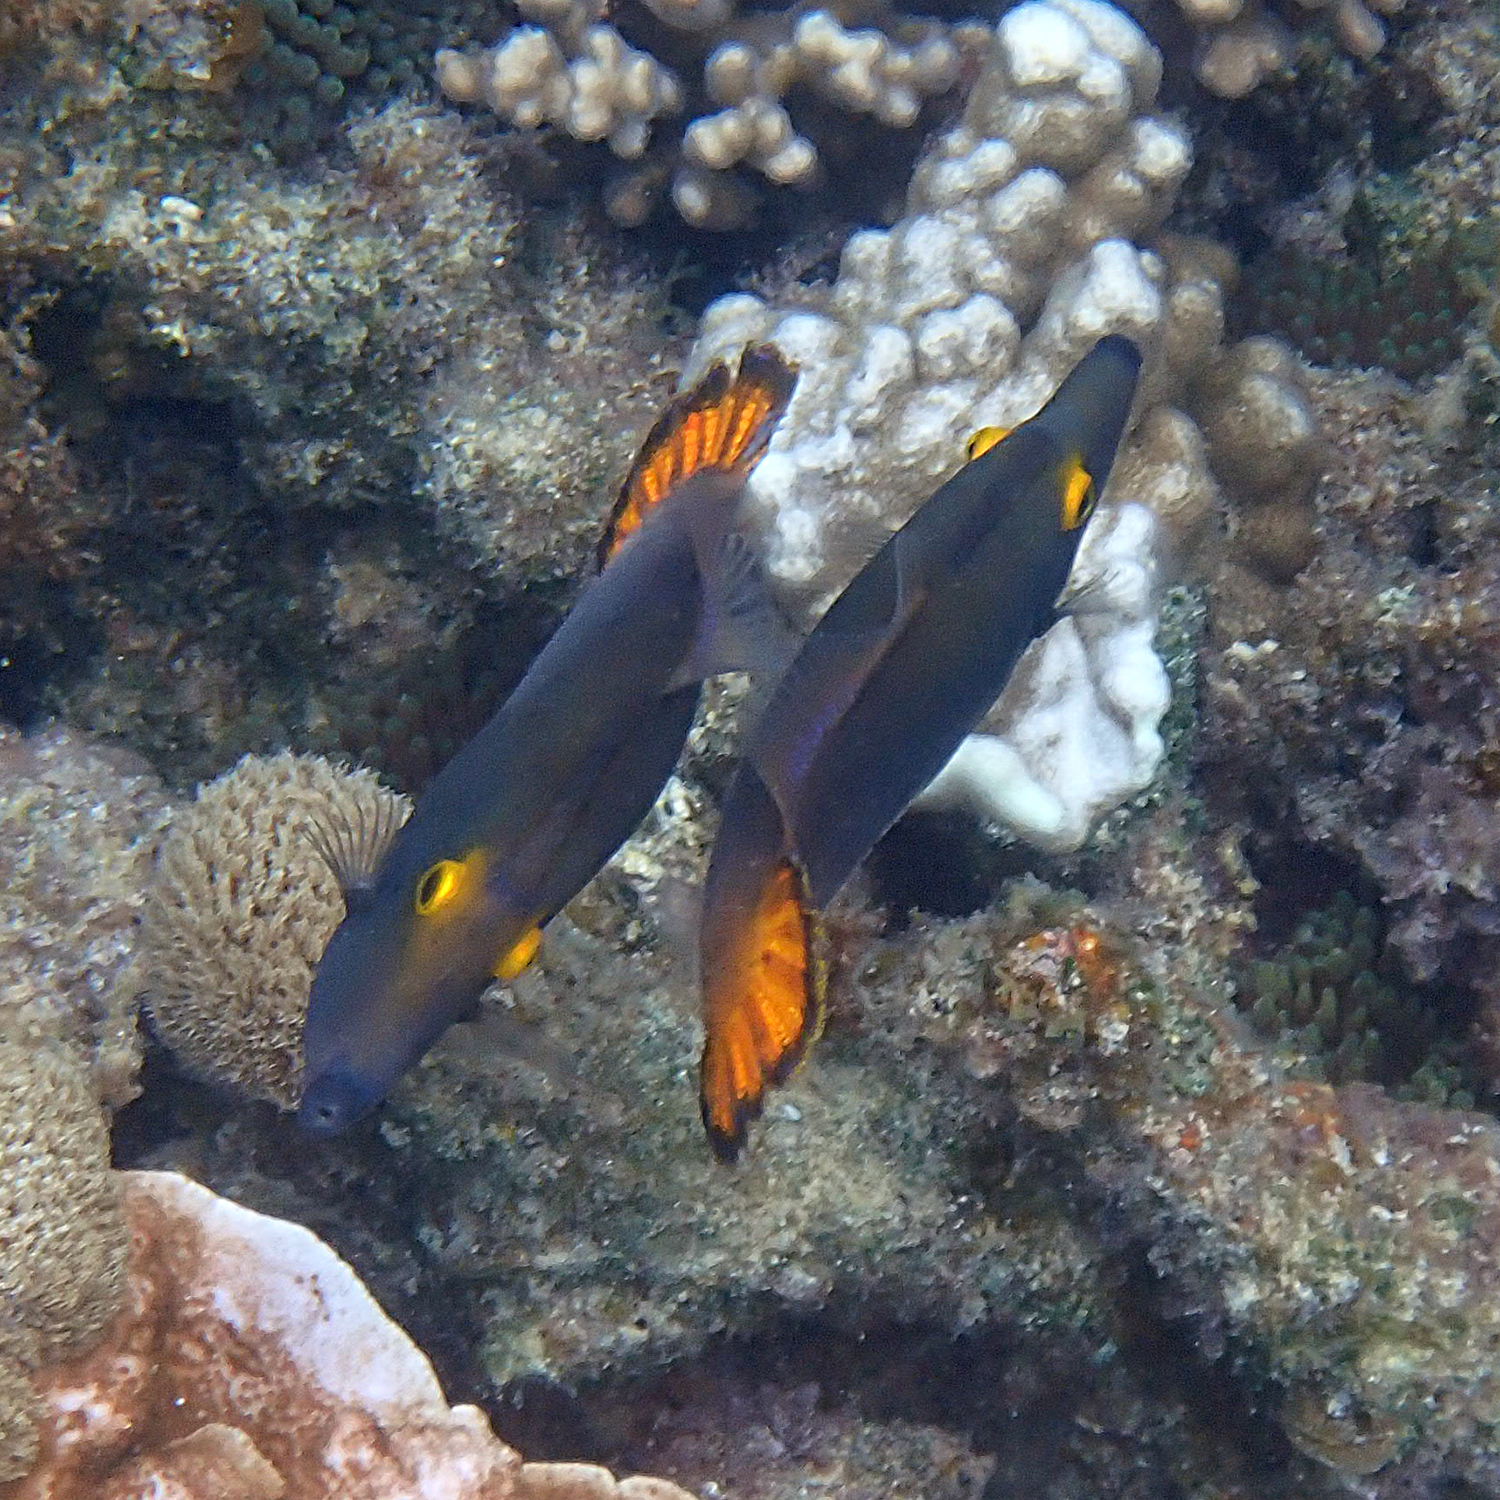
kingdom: Animalia
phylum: Chordata
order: Tetraodontiformes
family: Monacanthidae
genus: Pervagor
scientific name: Pervagor alternans
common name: Yelloweye filefish
